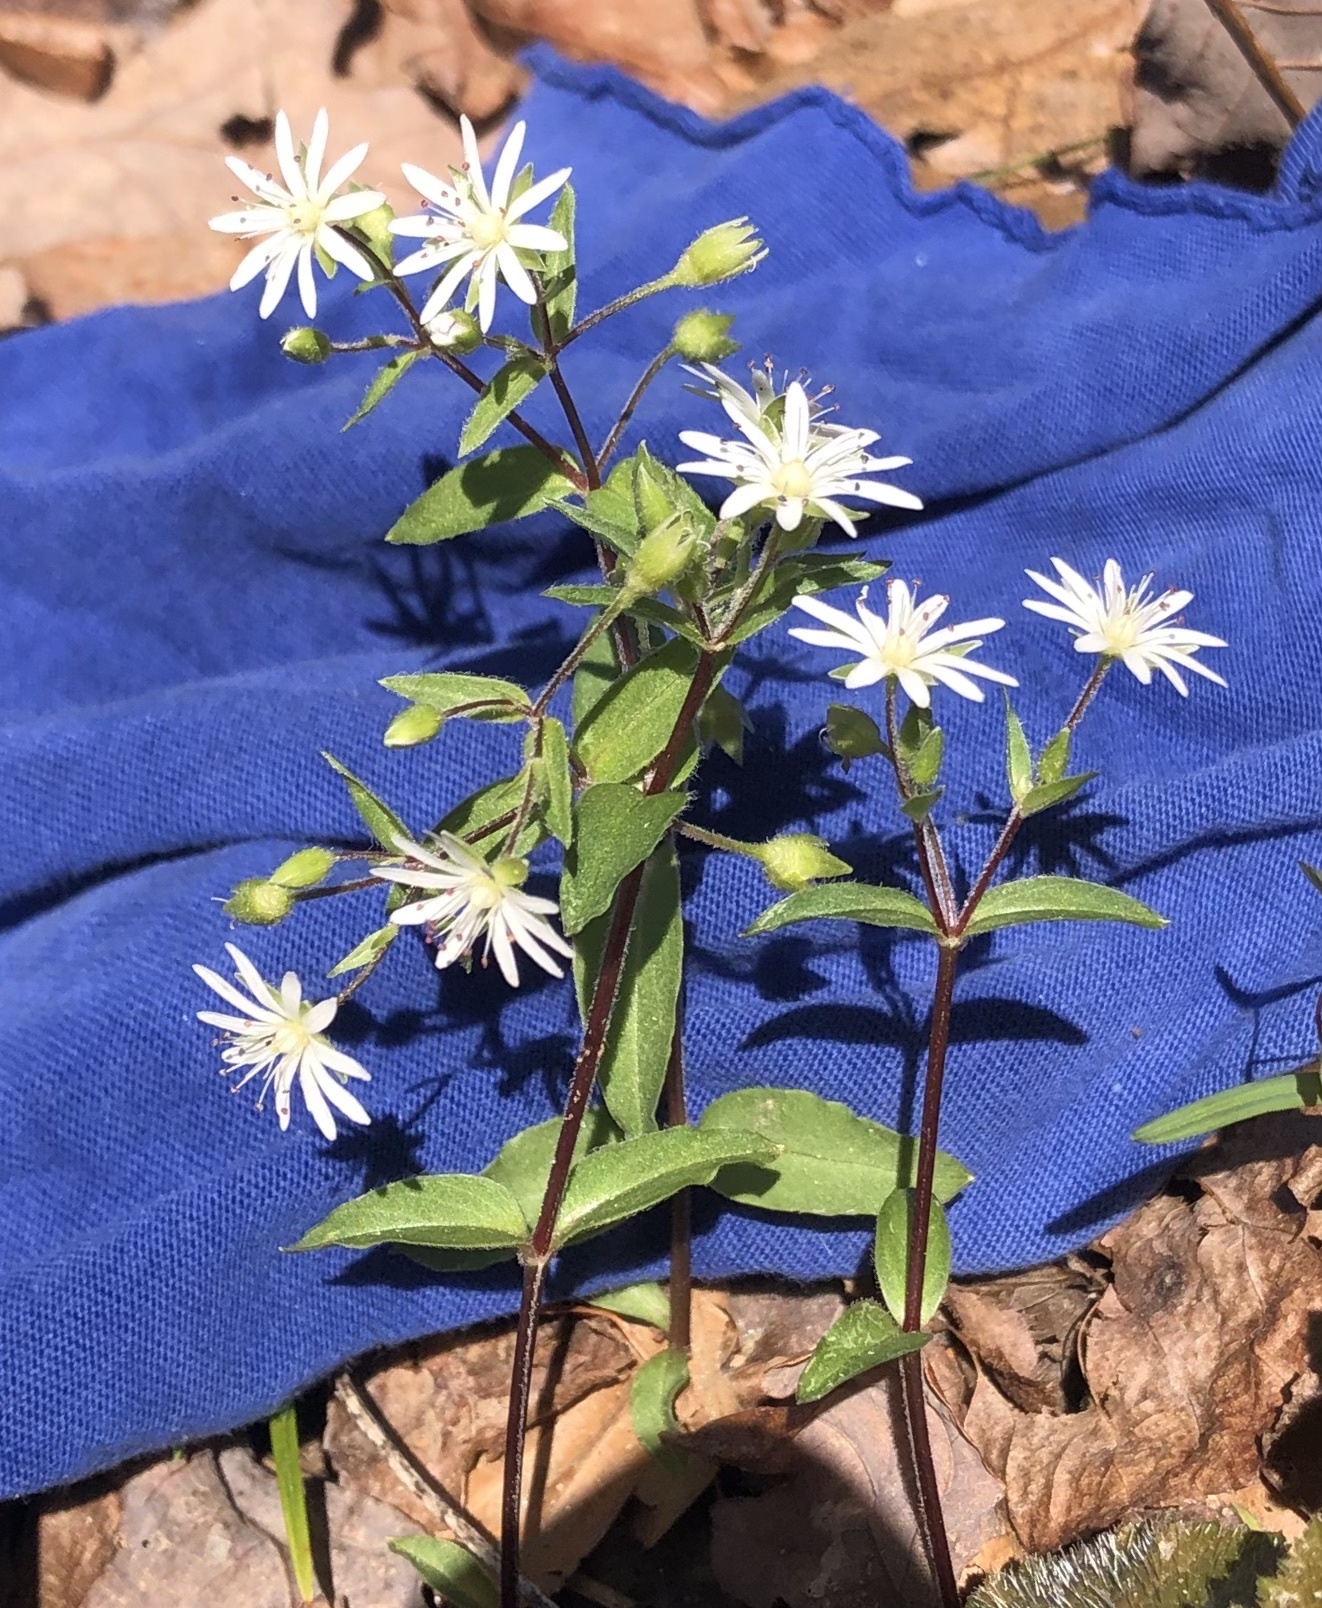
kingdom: Plantae
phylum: Tracheophyta
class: Magnoliopsida
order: Caryophyllales
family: Caryophyllaceae
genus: Stellaria
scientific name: Stellaria pubera
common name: Star chickweed
